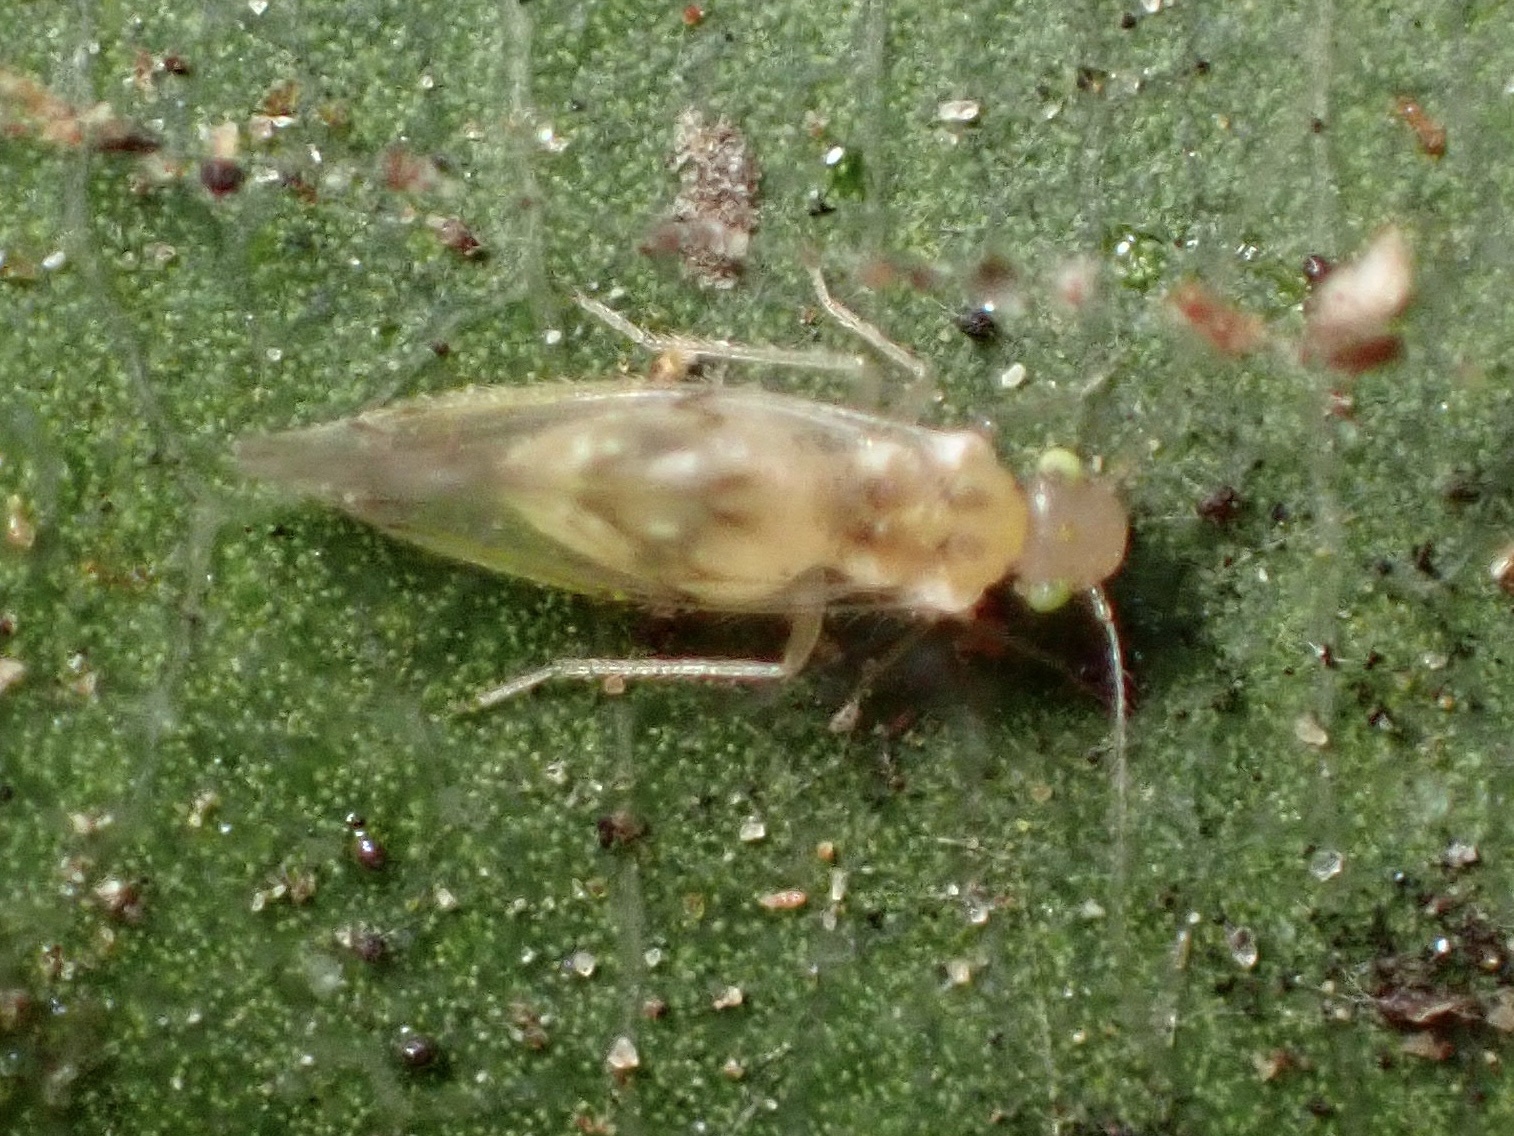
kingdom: Animalia
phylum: Arthropoda
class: Insecta
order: Psocodea
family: Trichopsocidae
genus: Trichopsocus
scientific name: Trichopsocus clarus
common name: Lash-faced psocid
